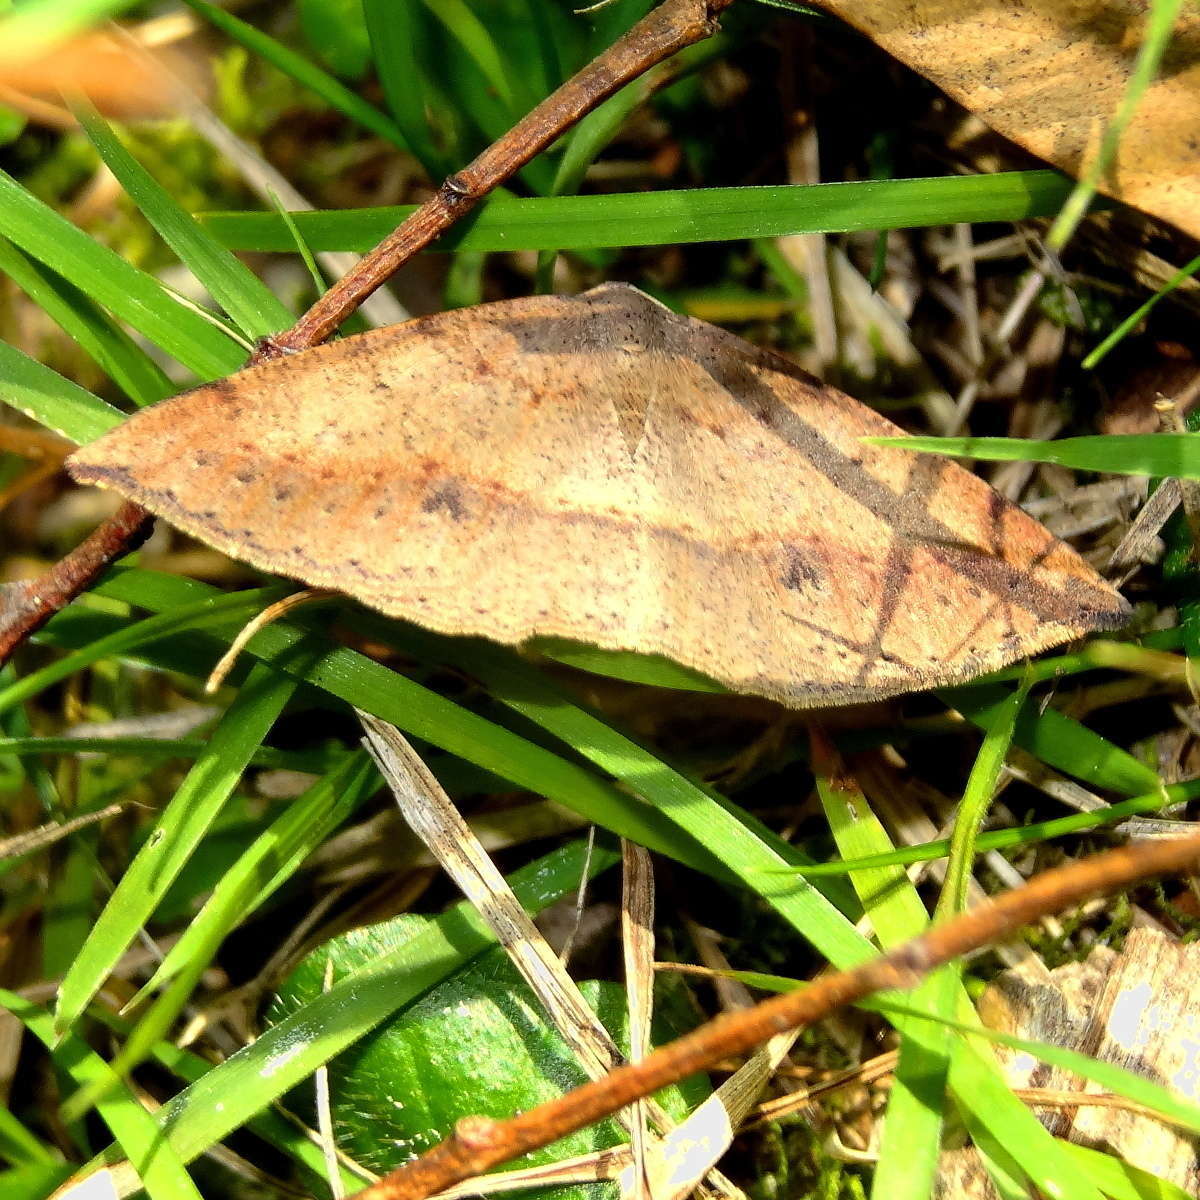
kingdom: Animalia
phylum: Arthropoda
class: Insecta
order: Lepidoptera
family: Geometridae
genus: Taxeotis
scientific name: Taxeotis intextata
